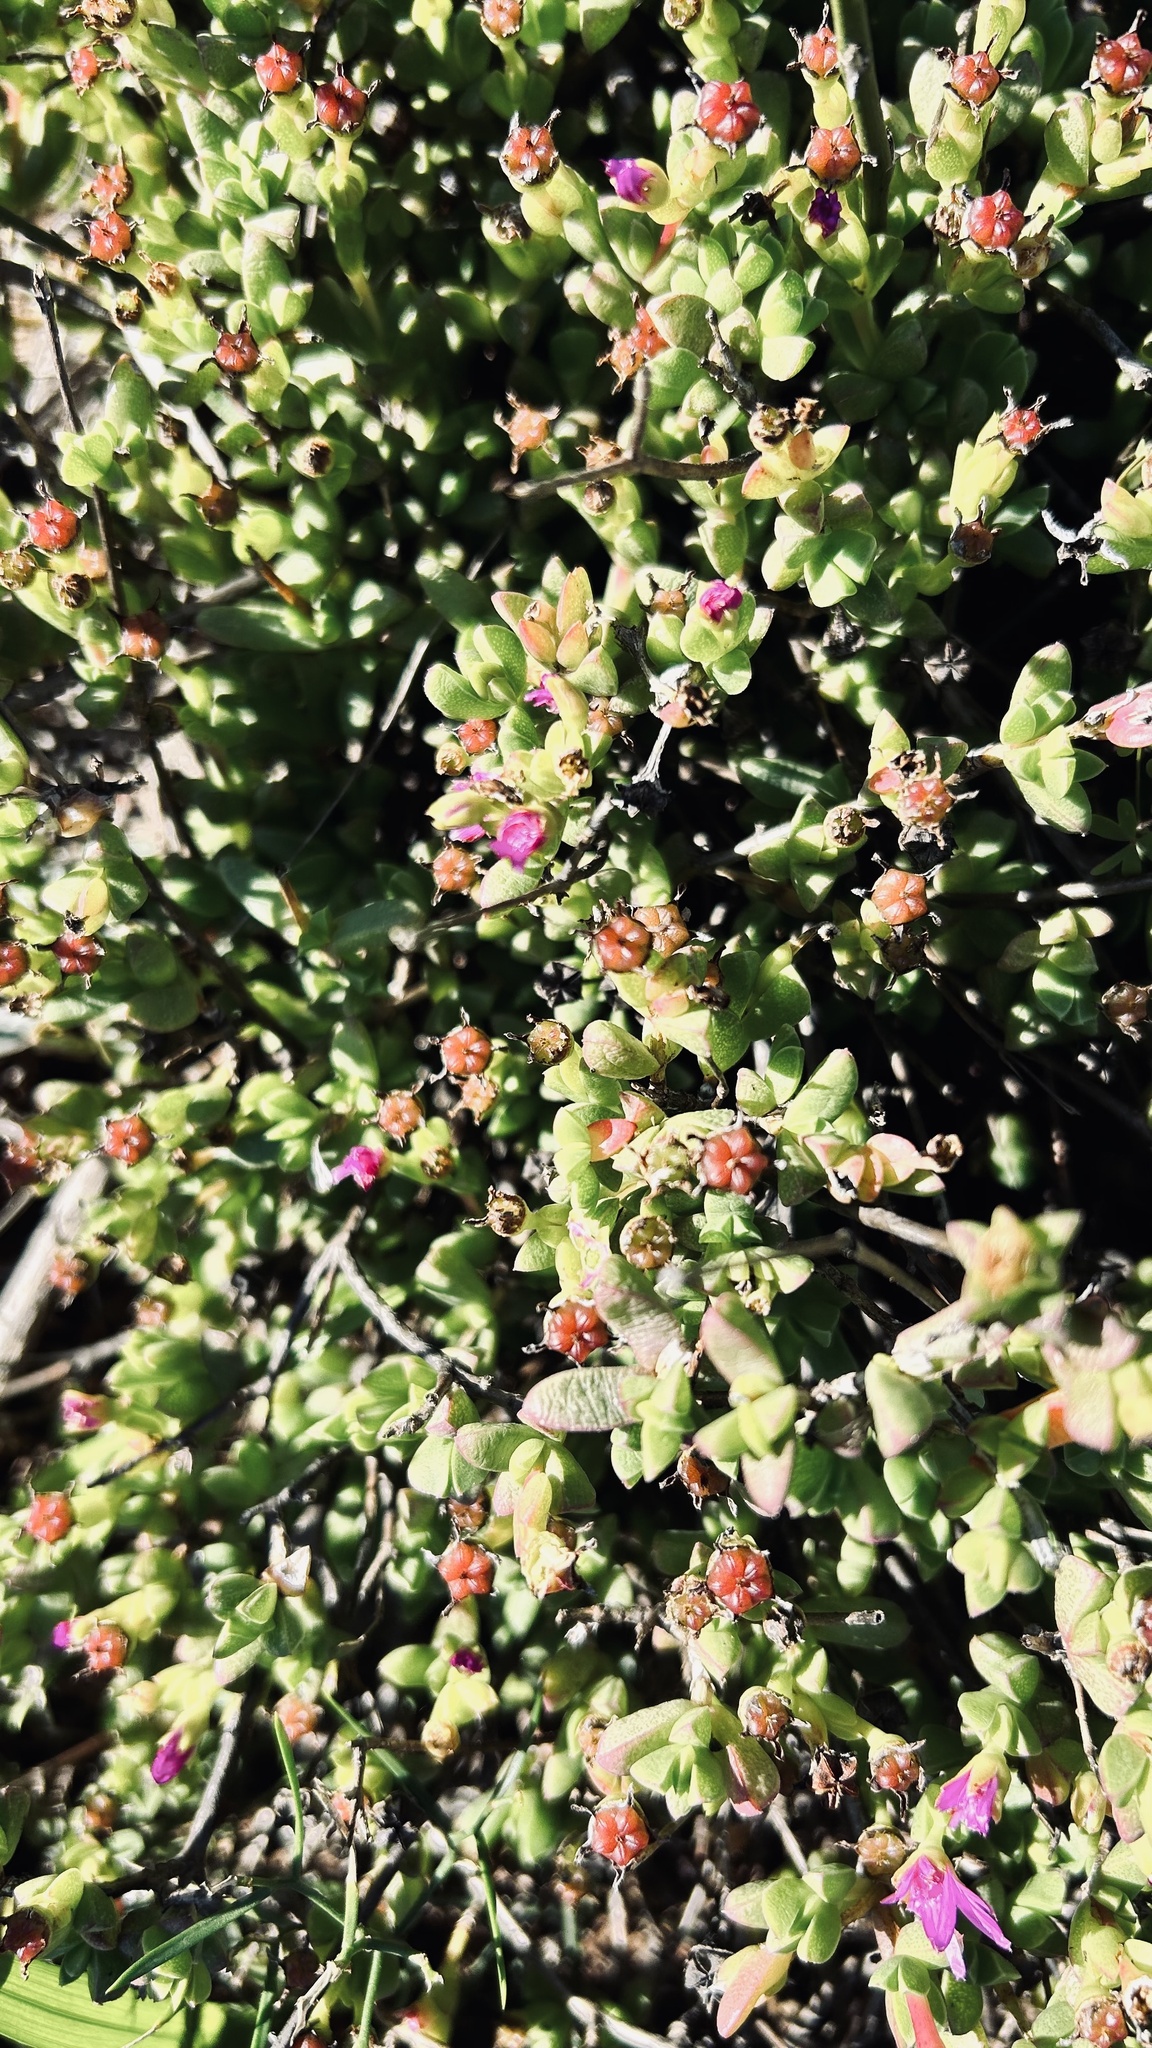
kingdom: Plantae
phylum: Tracheophyta
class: Magnoliopsida
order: Caryophyllales
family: Aizoaceae
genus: Ruschia
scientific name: Ruschia leptocalyx
